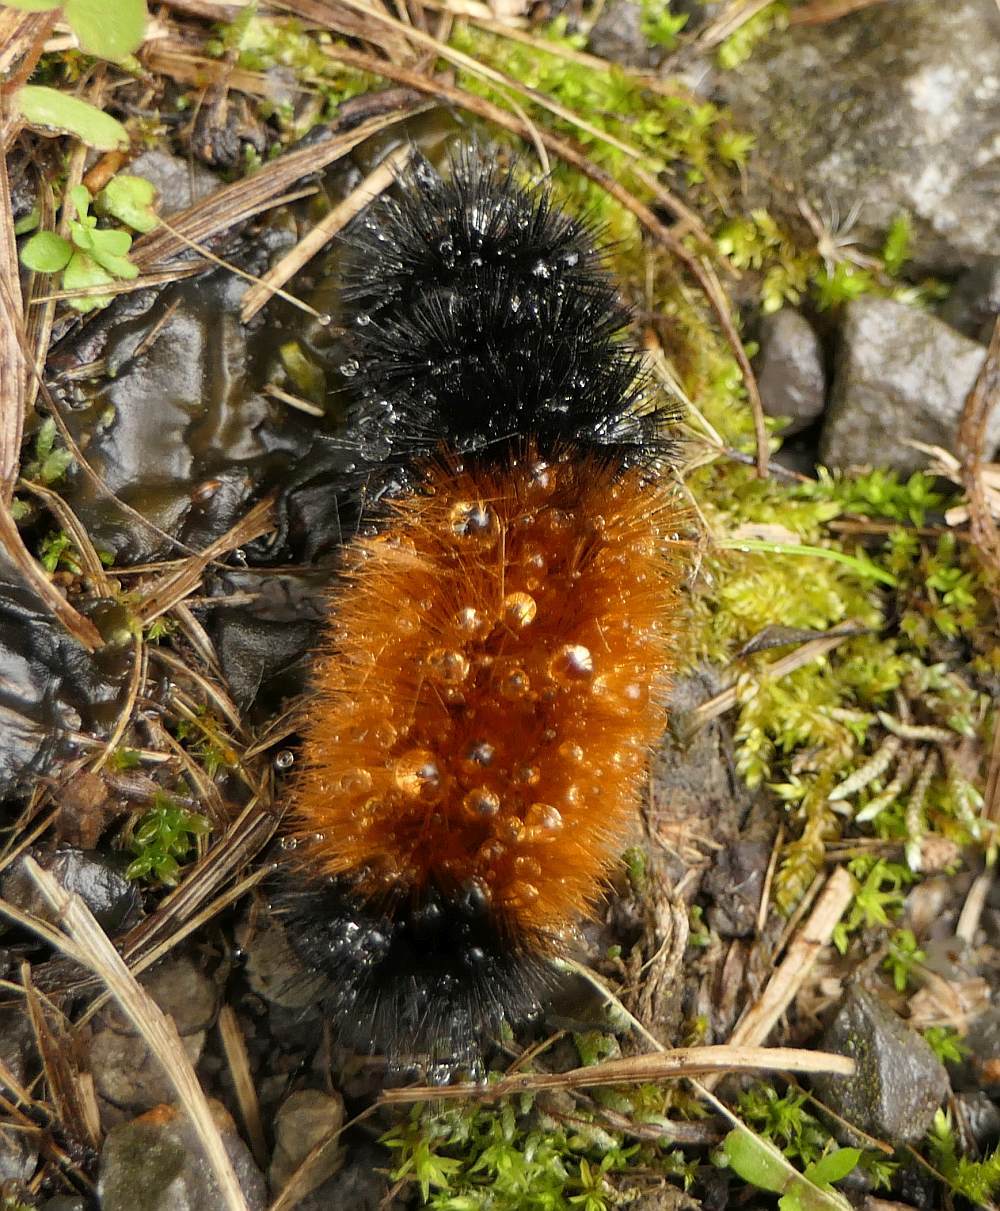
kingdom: Animalia
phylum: Arthropoda
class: Insecta
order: Lepidoptera
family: Erebidae
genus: Pyrrharctia
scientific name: Pyrrharctia isabella
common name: Isabella tiger moth
